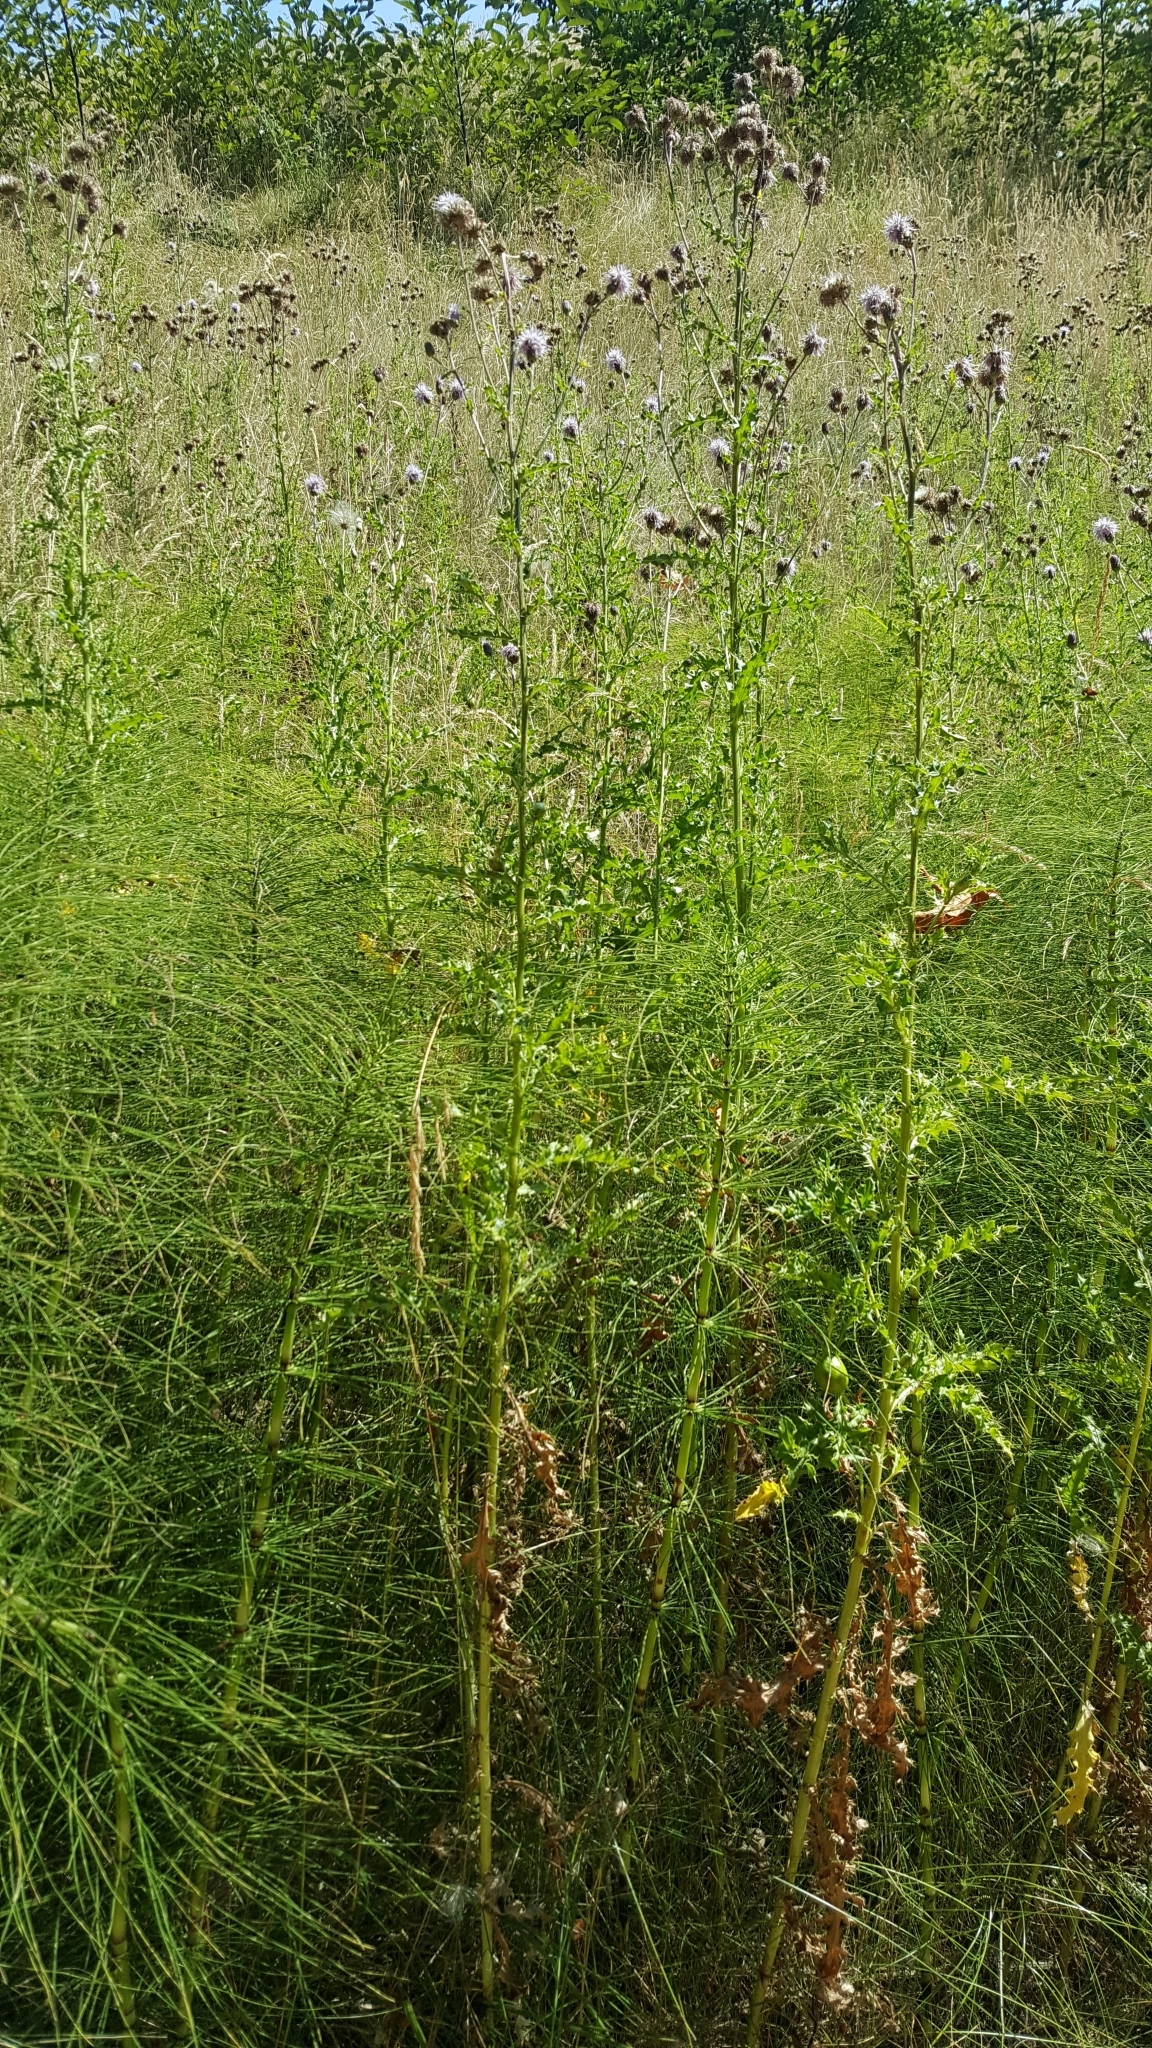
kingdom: Plantae
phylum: Tracheophyta
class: Magnoliopsida
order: Asterales
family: Asteraceae
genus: Cirsium
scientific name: Cirsium arvense
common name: Creeping thistle
